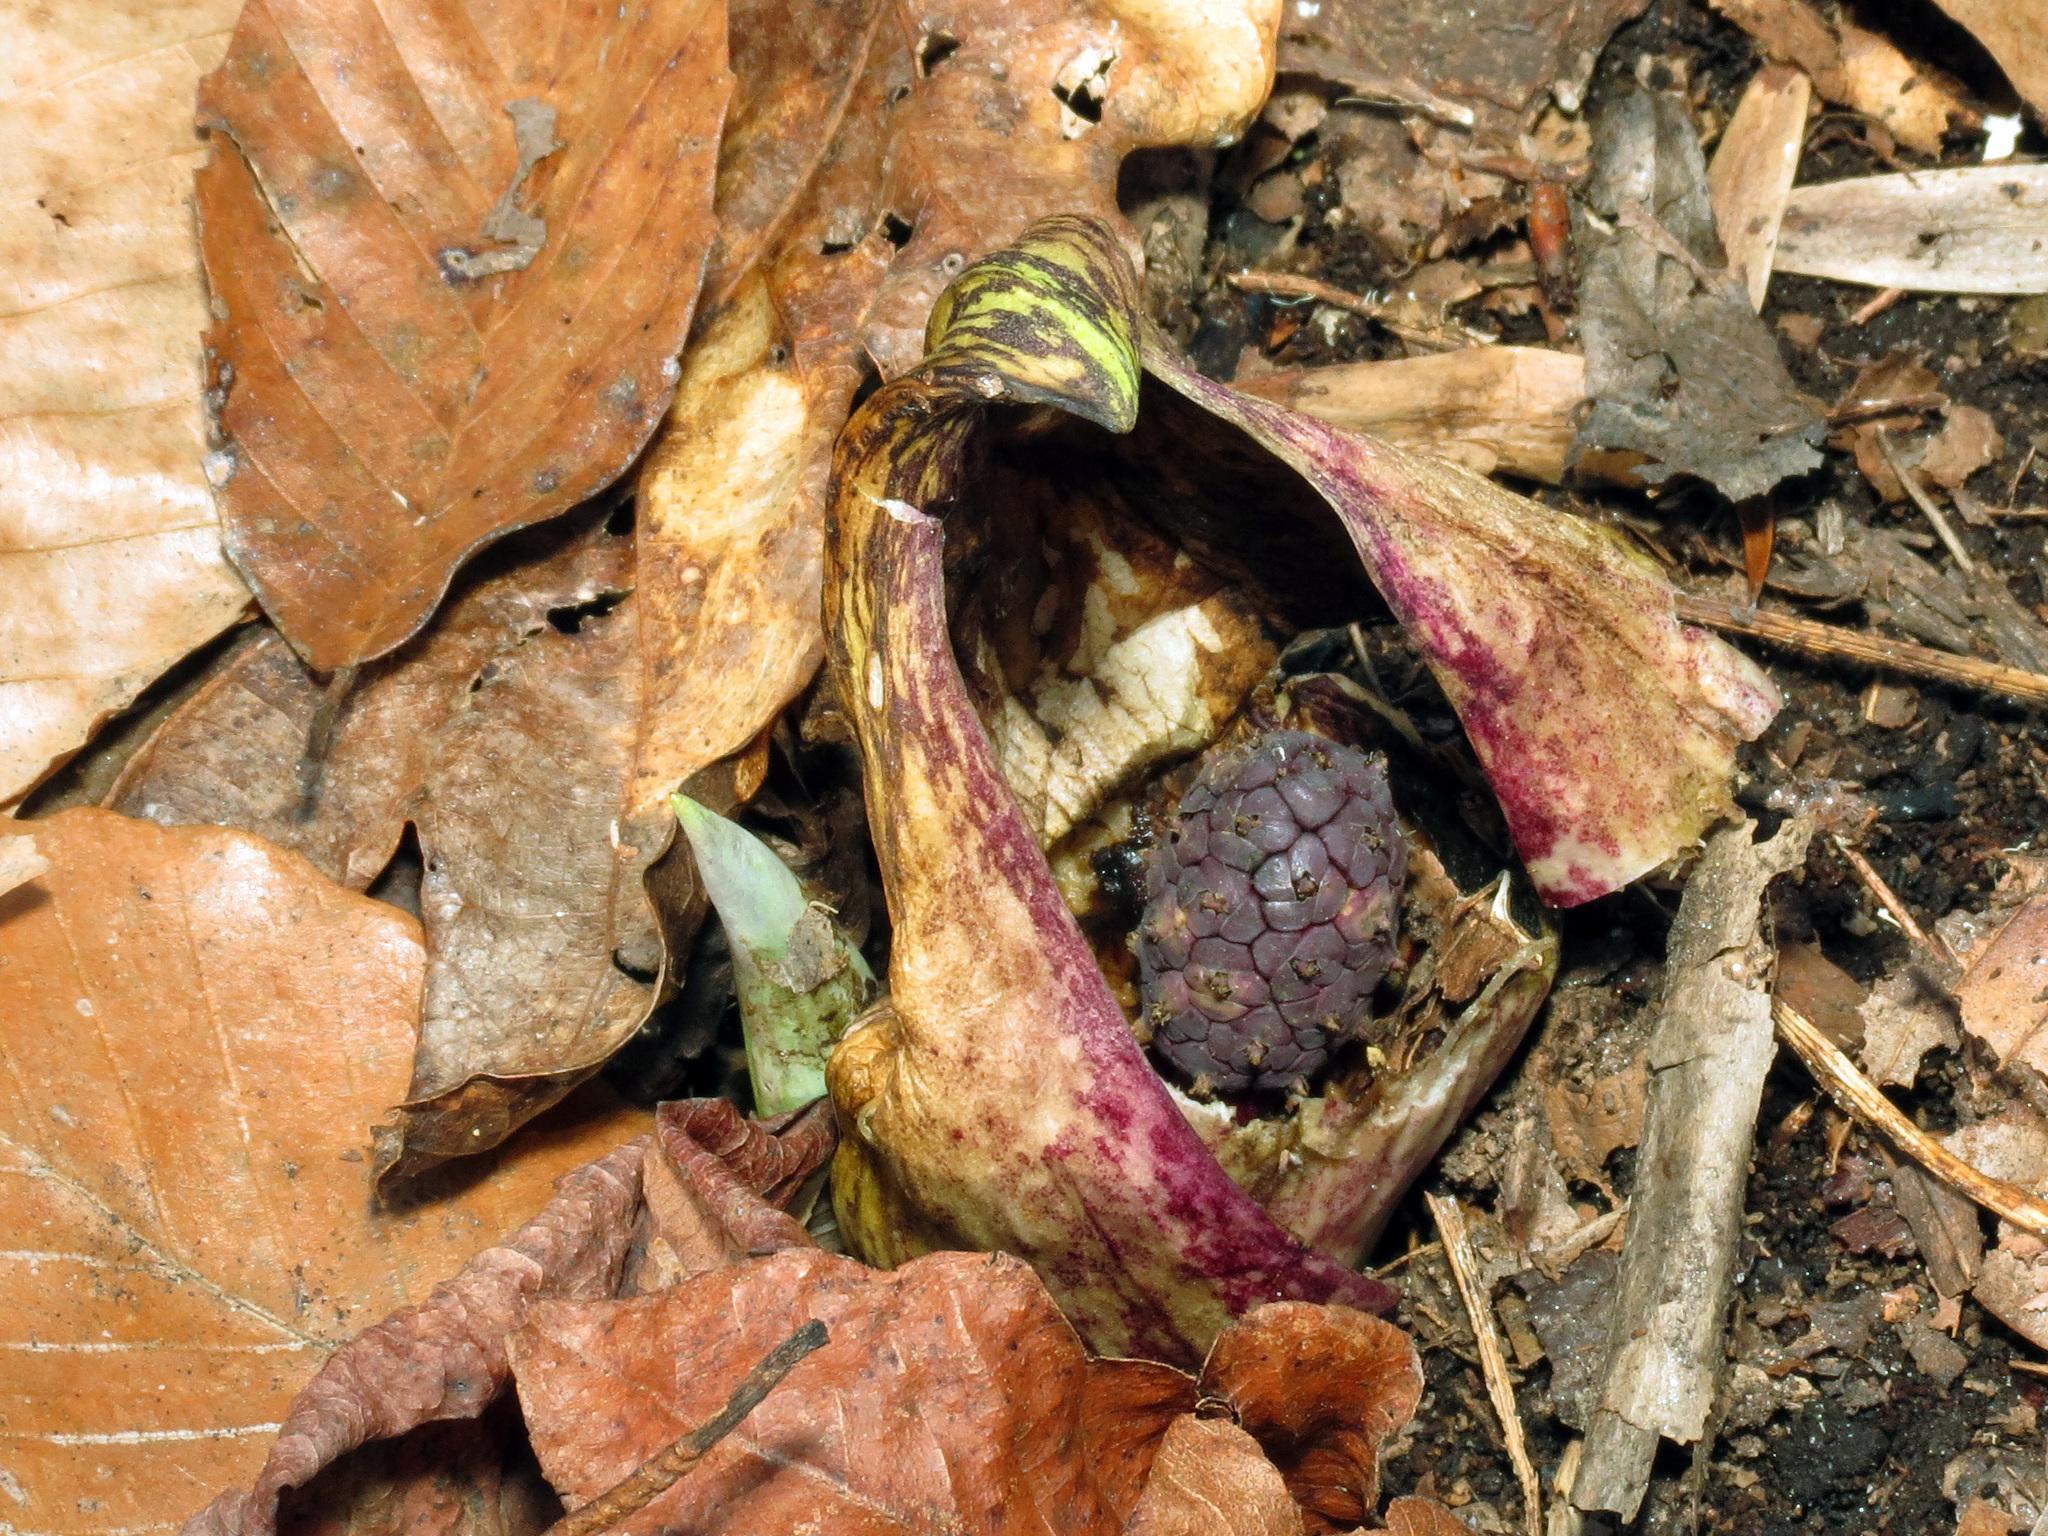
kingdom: Plantae
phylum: Tracheophyta
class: Liliopsida
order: Alismatales
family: Araceae
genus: Symplocarpus
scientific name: Symplocarpus foetidus
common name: Eastern skunk cabbage
